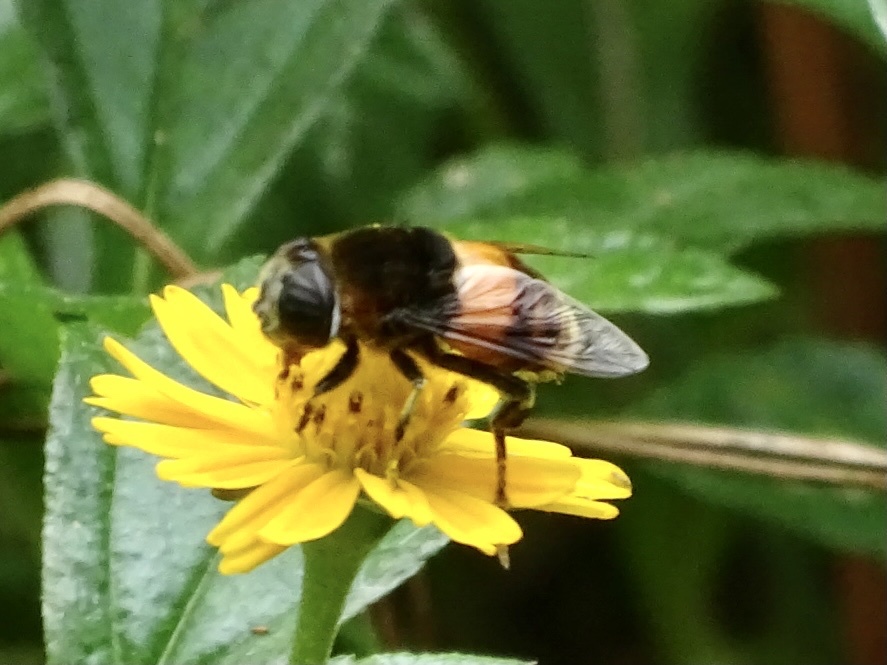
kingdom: Animalia
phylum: Arthropoda
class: Insecta
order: Diptera
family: Syrphidae
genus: Phytomia
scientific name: Phytomia zonata
